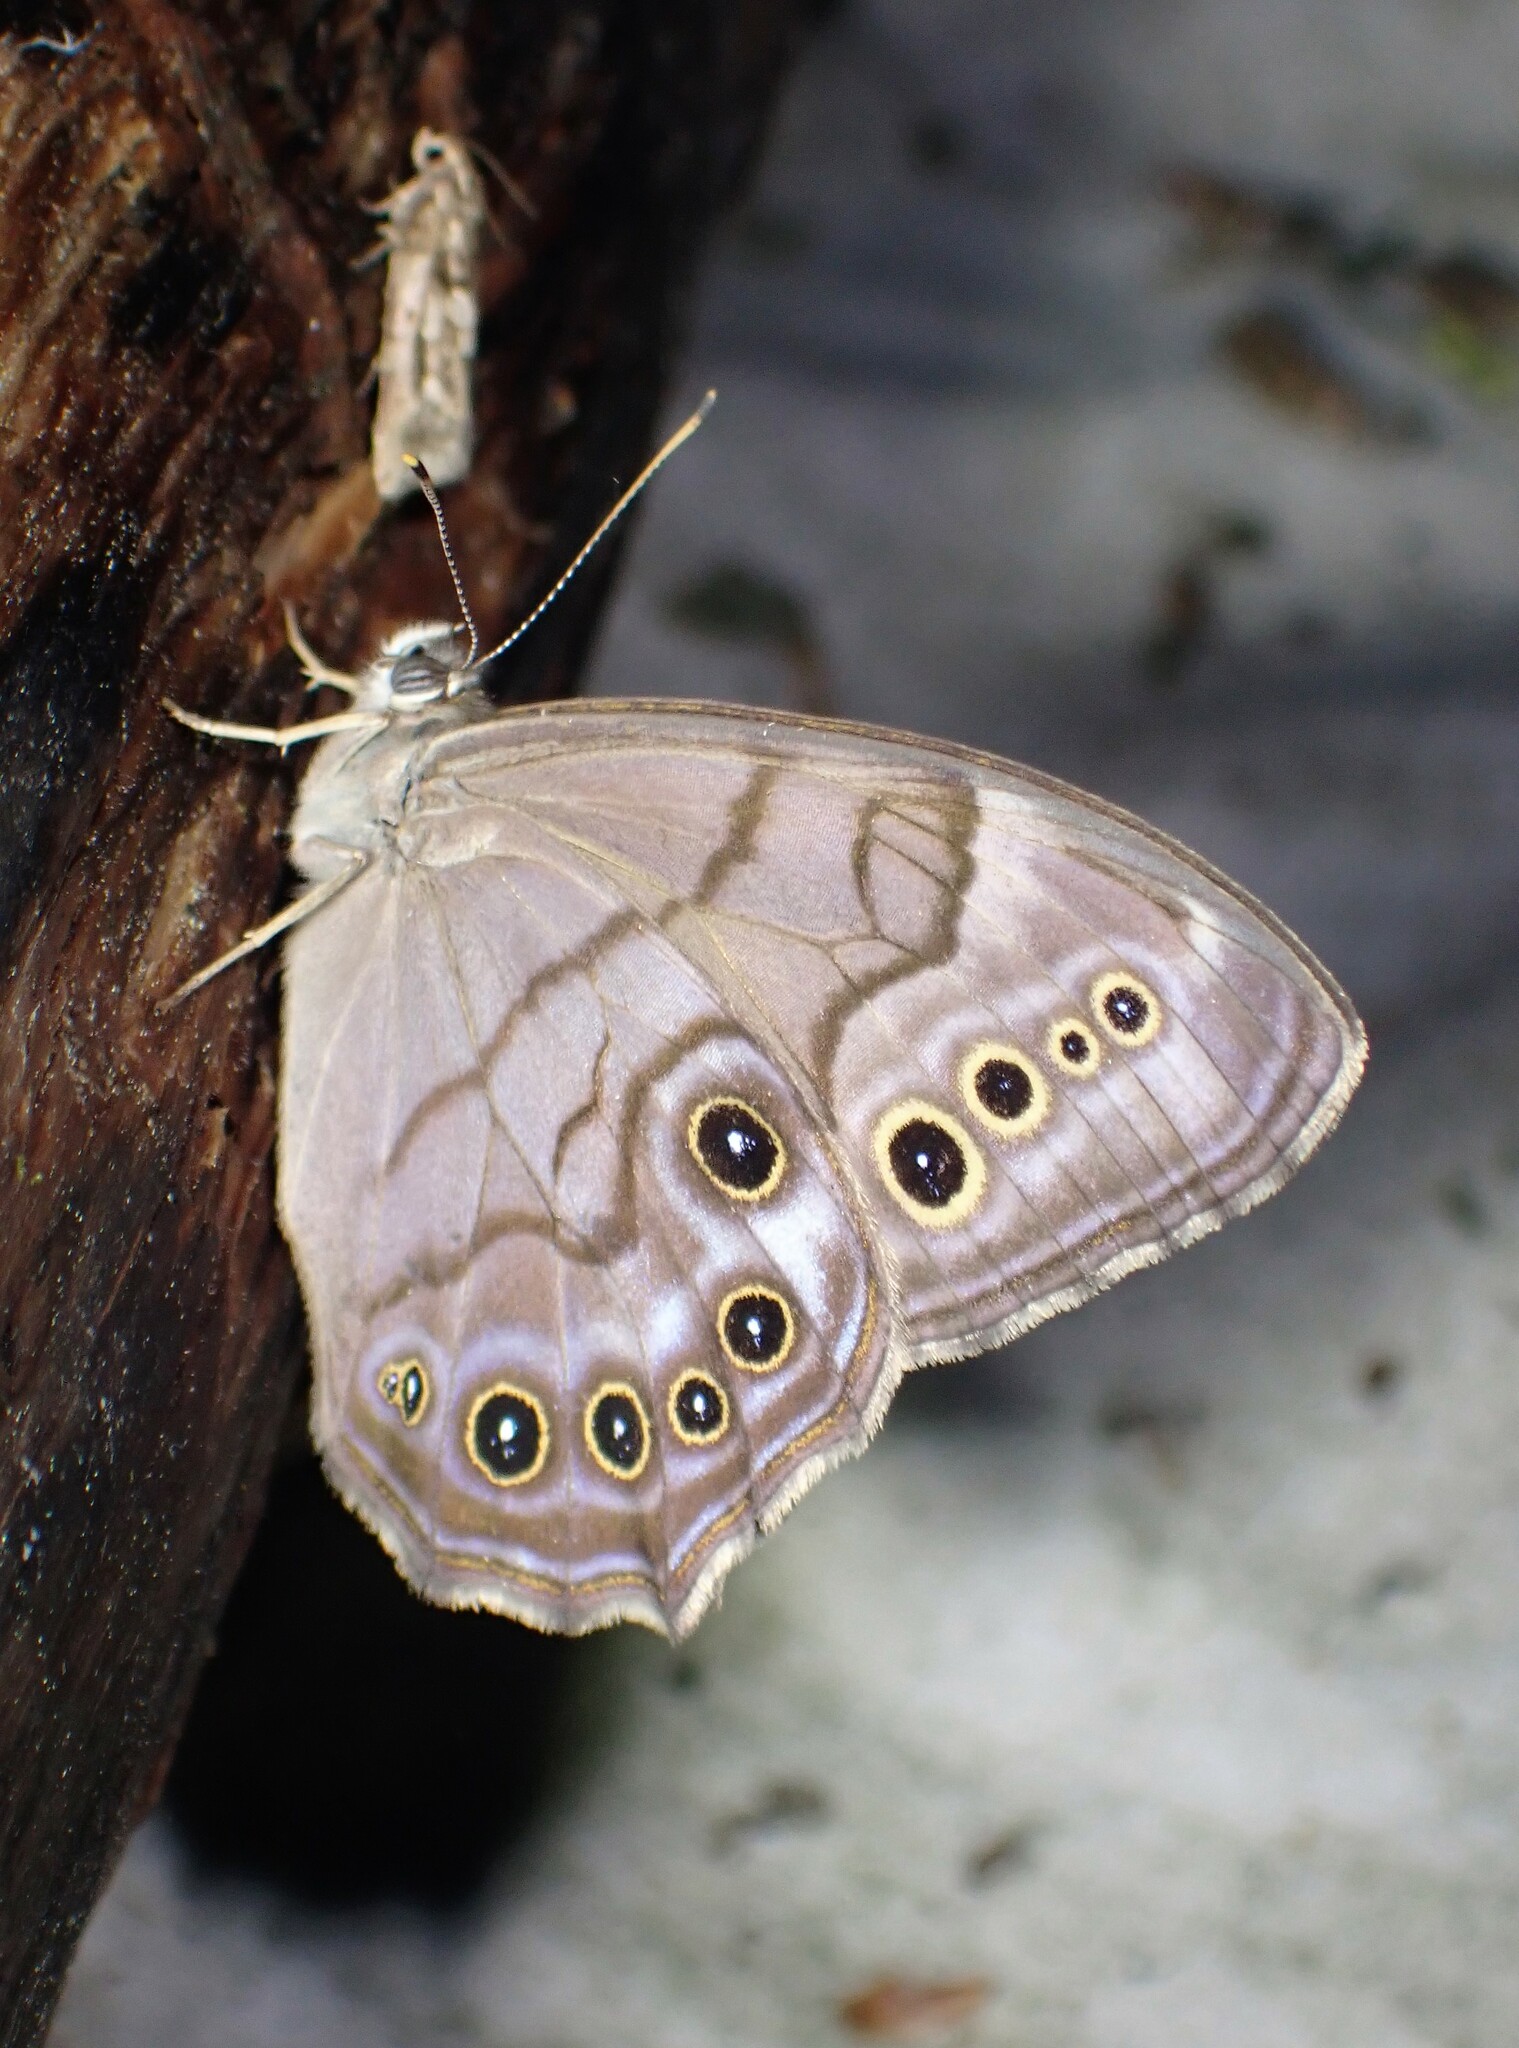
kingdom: Animalia
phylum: Arthropoda
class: Insecta
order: Lepidoptera
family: Nymphalidae
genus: Lethe
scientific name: Lethe anthedon
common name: Northern pearly-eye
